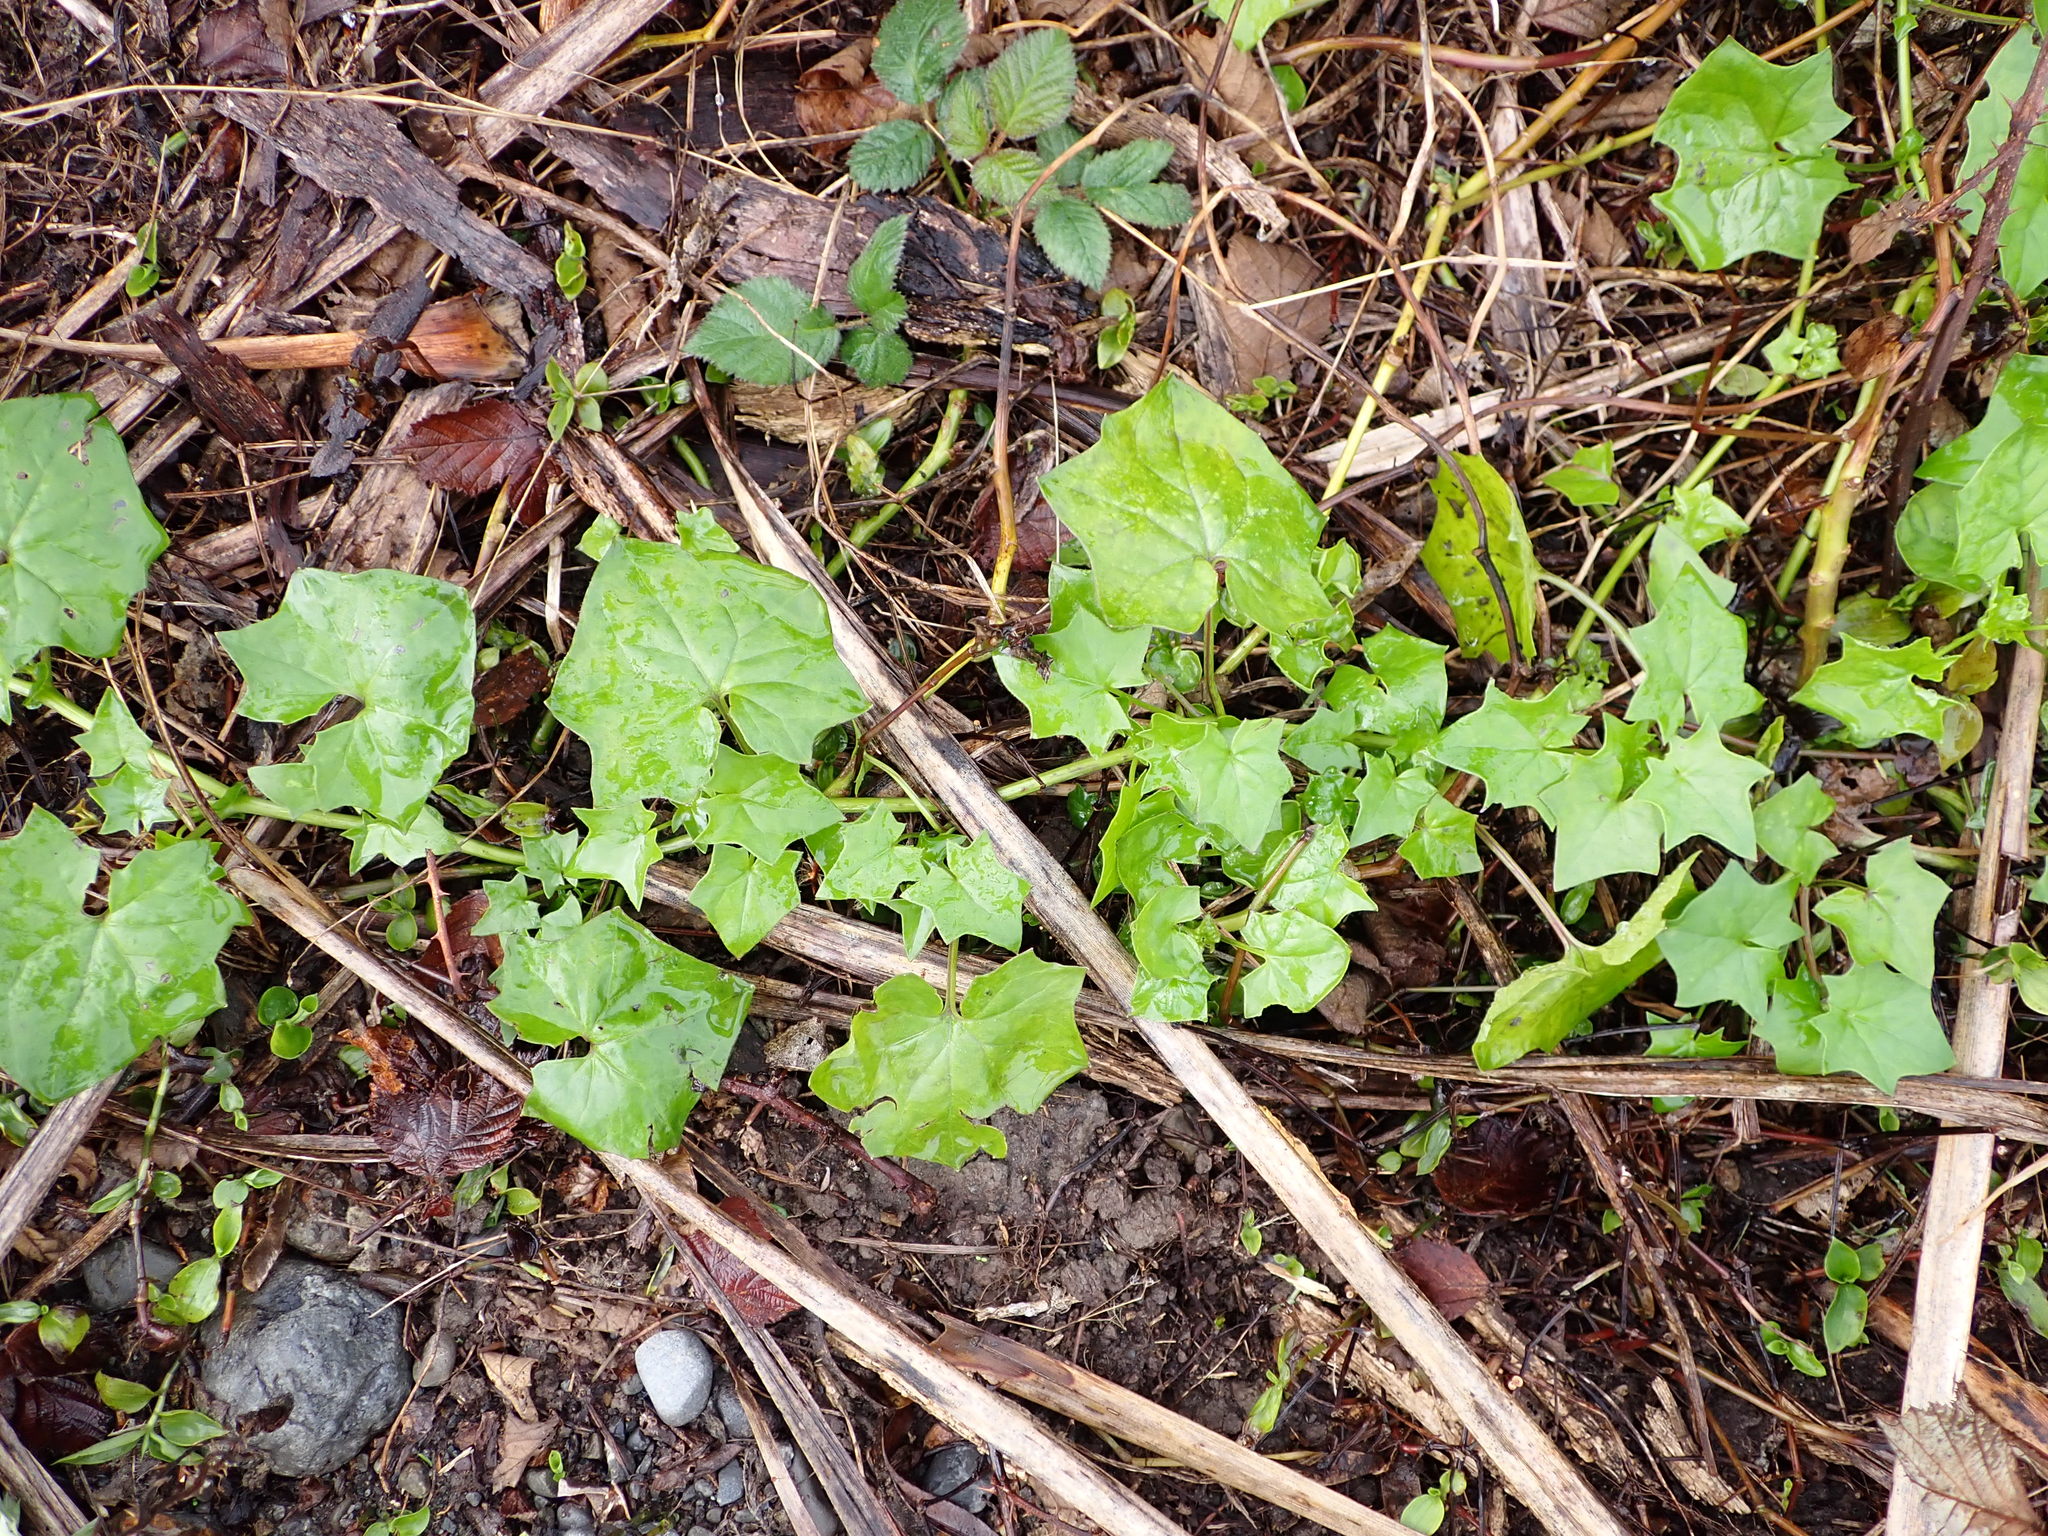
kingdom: Plantae
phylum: Tracheophyta
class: Magnoliopsida
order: Asterales
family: Asteraceae
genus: Delairea
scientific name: Delairea odorata
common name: Cape-ivy
